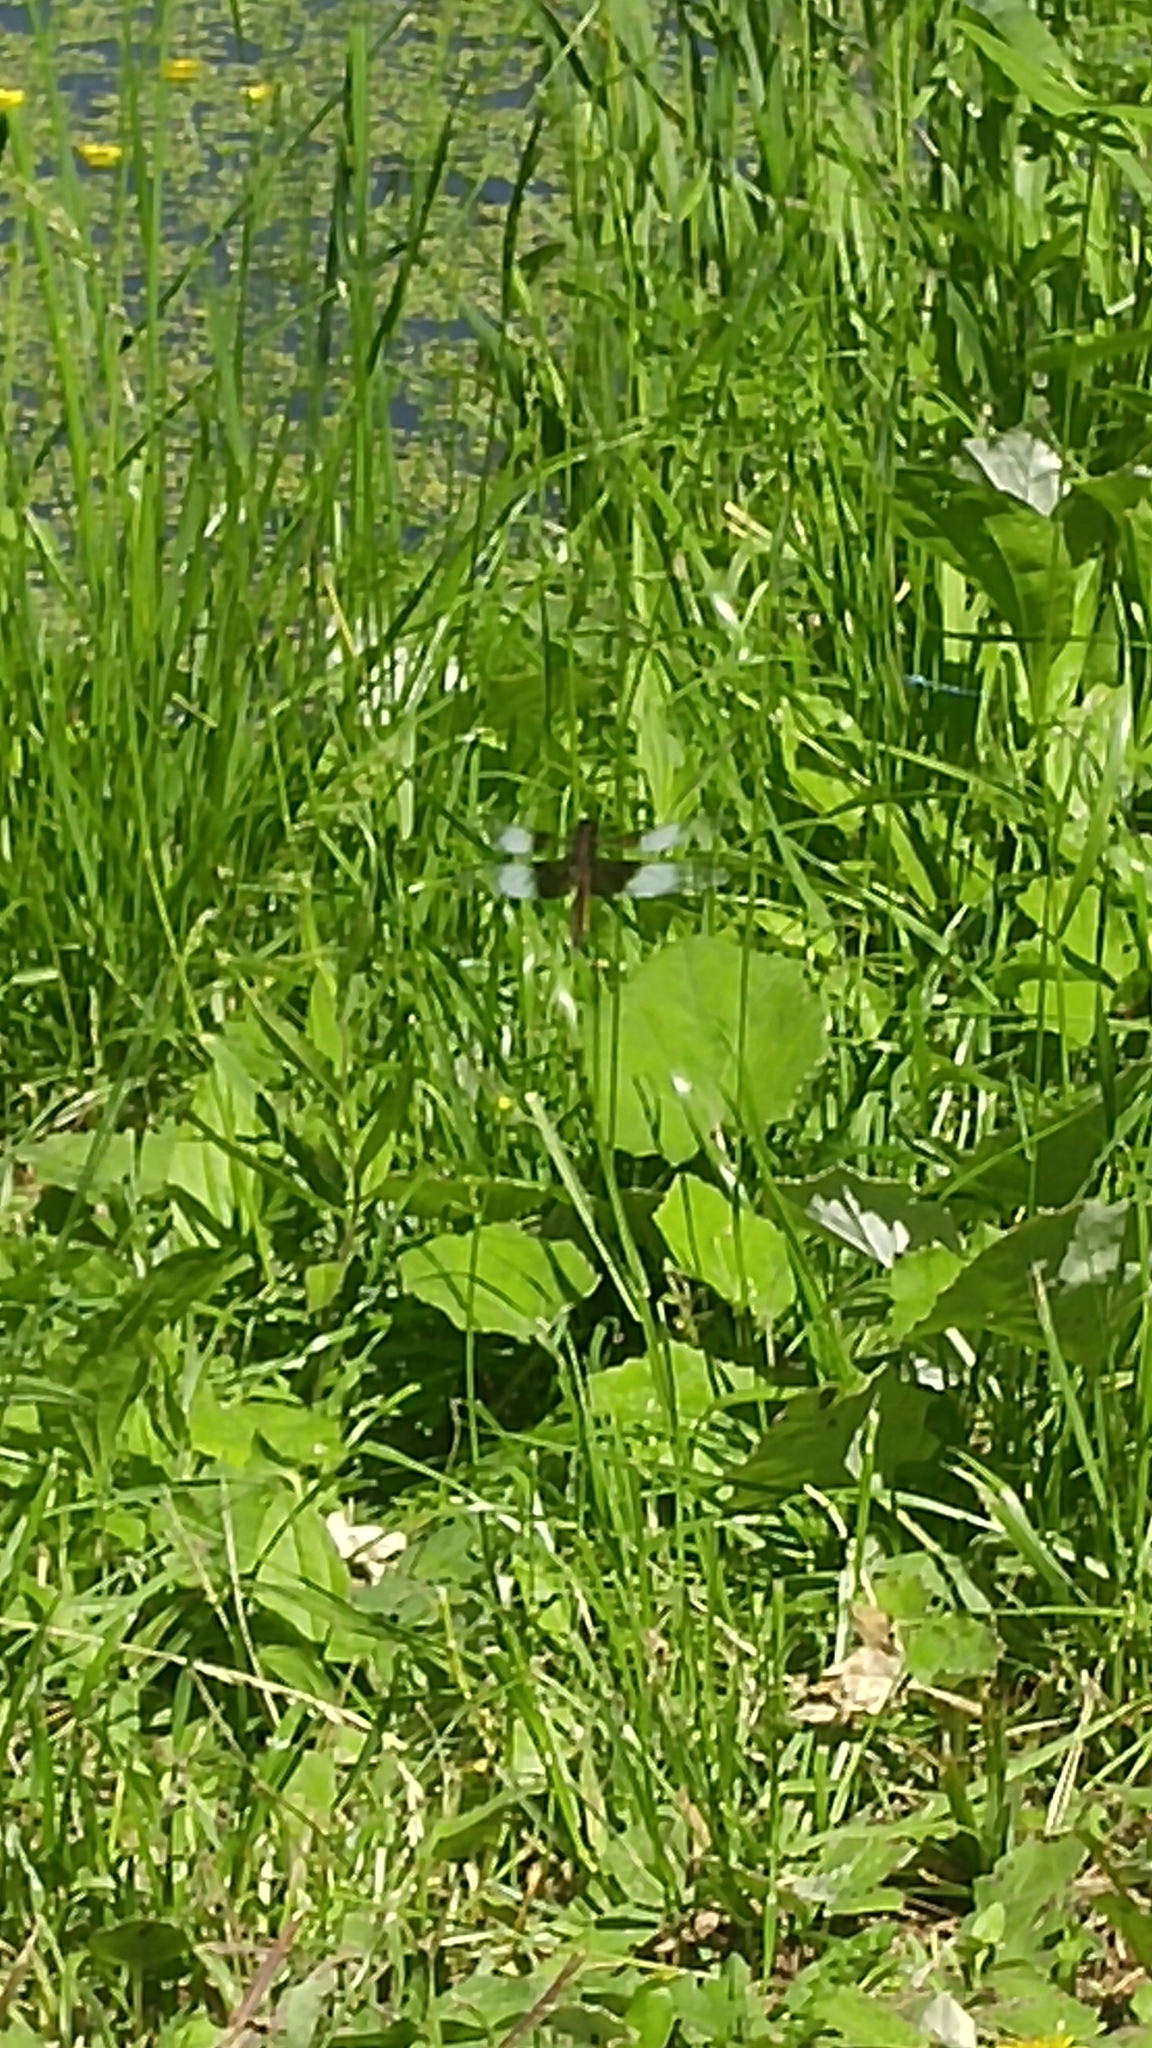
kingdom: Animalia
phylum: Arthropoda
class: Insecta
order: Odonata
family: Libellulidae
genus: Libellula
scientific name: Libellula luctuosa
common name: Widow skimmer
